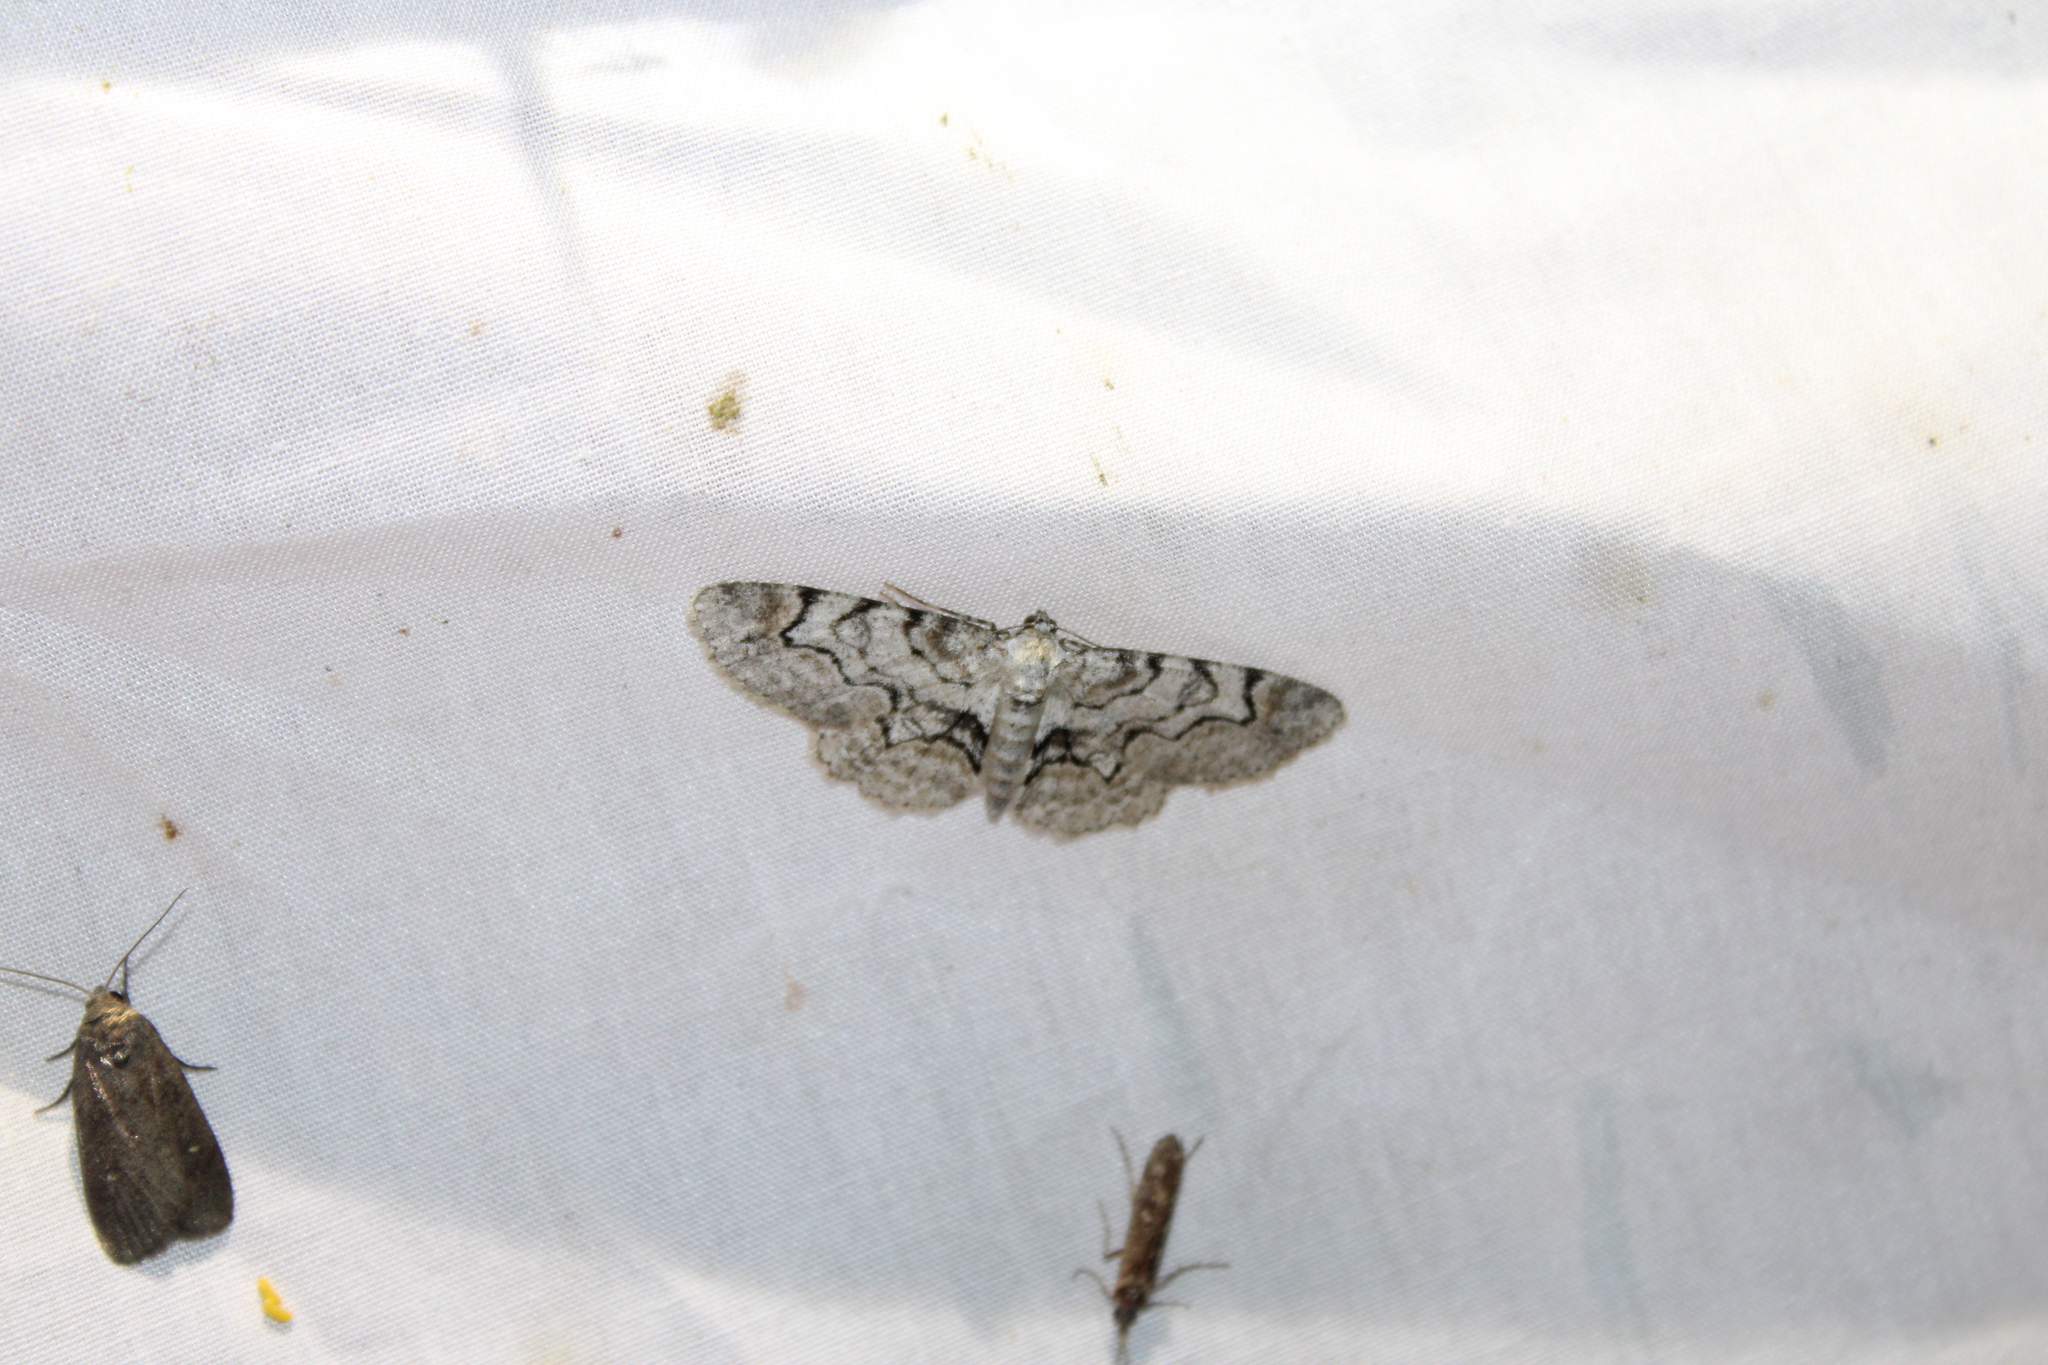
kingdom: Animalia
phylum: Arthropoda
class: Insecta
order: Lepidoptera
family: Geometridae
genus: Iridopsis
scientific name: Iridopsis larvaria
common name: Bent-line gray
